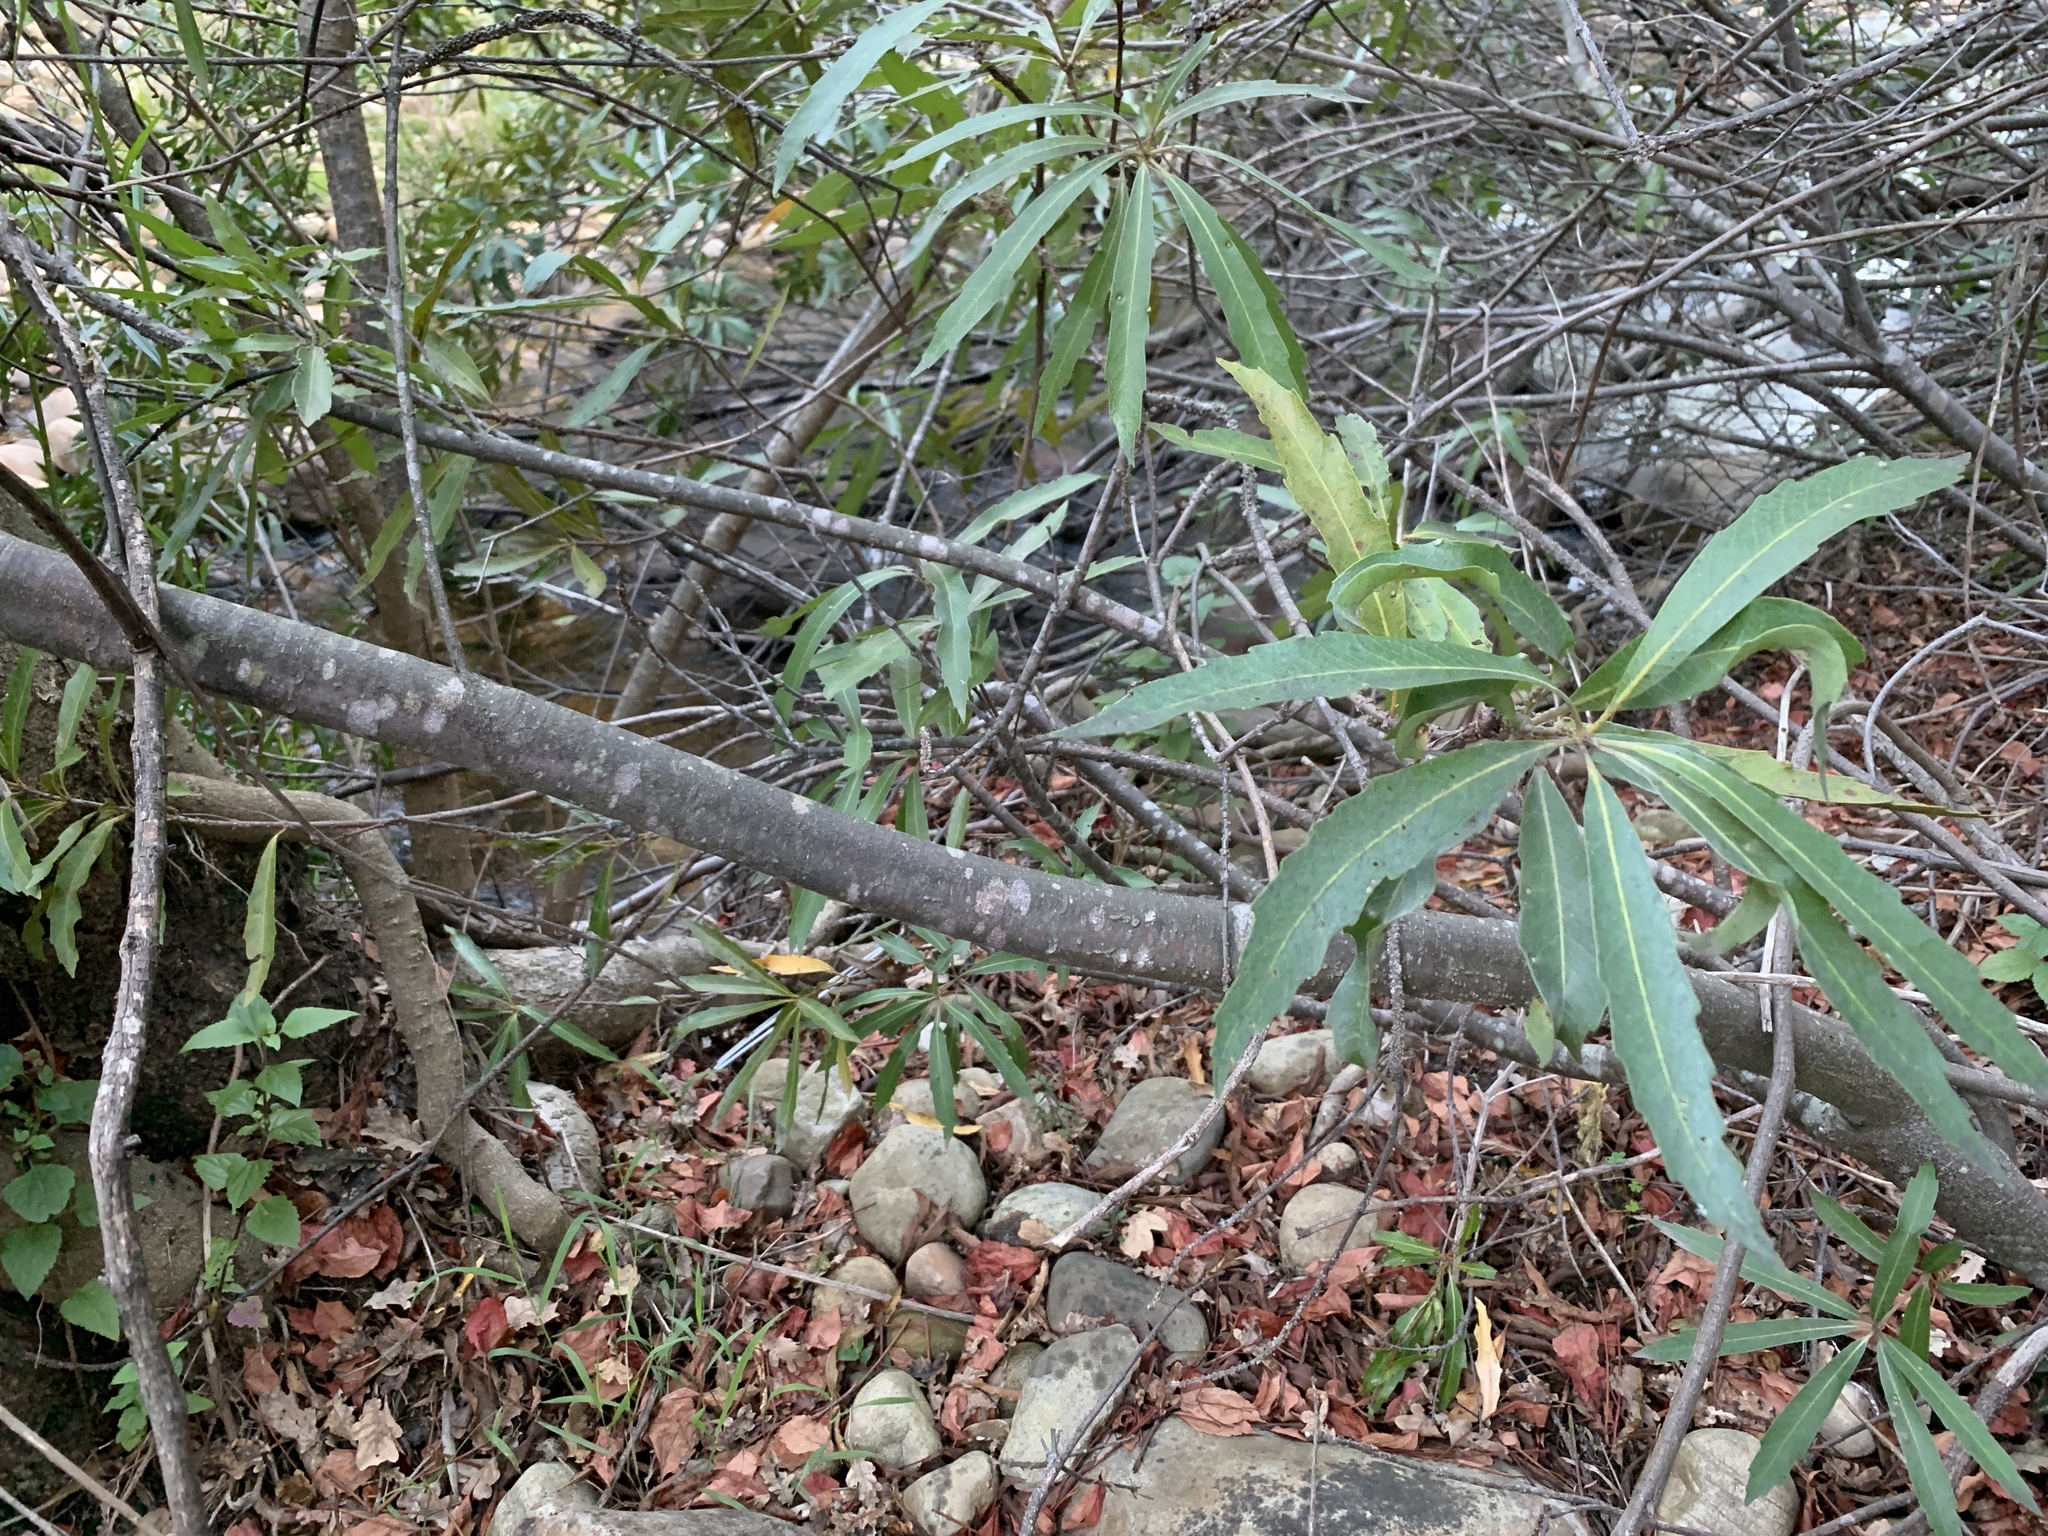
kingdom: Plantae
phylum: Tracheophyta
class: Magnoliopsida
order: Proteales
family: Proteaceae
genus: Brabejum
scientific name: Brabejum stellatifolium
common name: Wild almond
